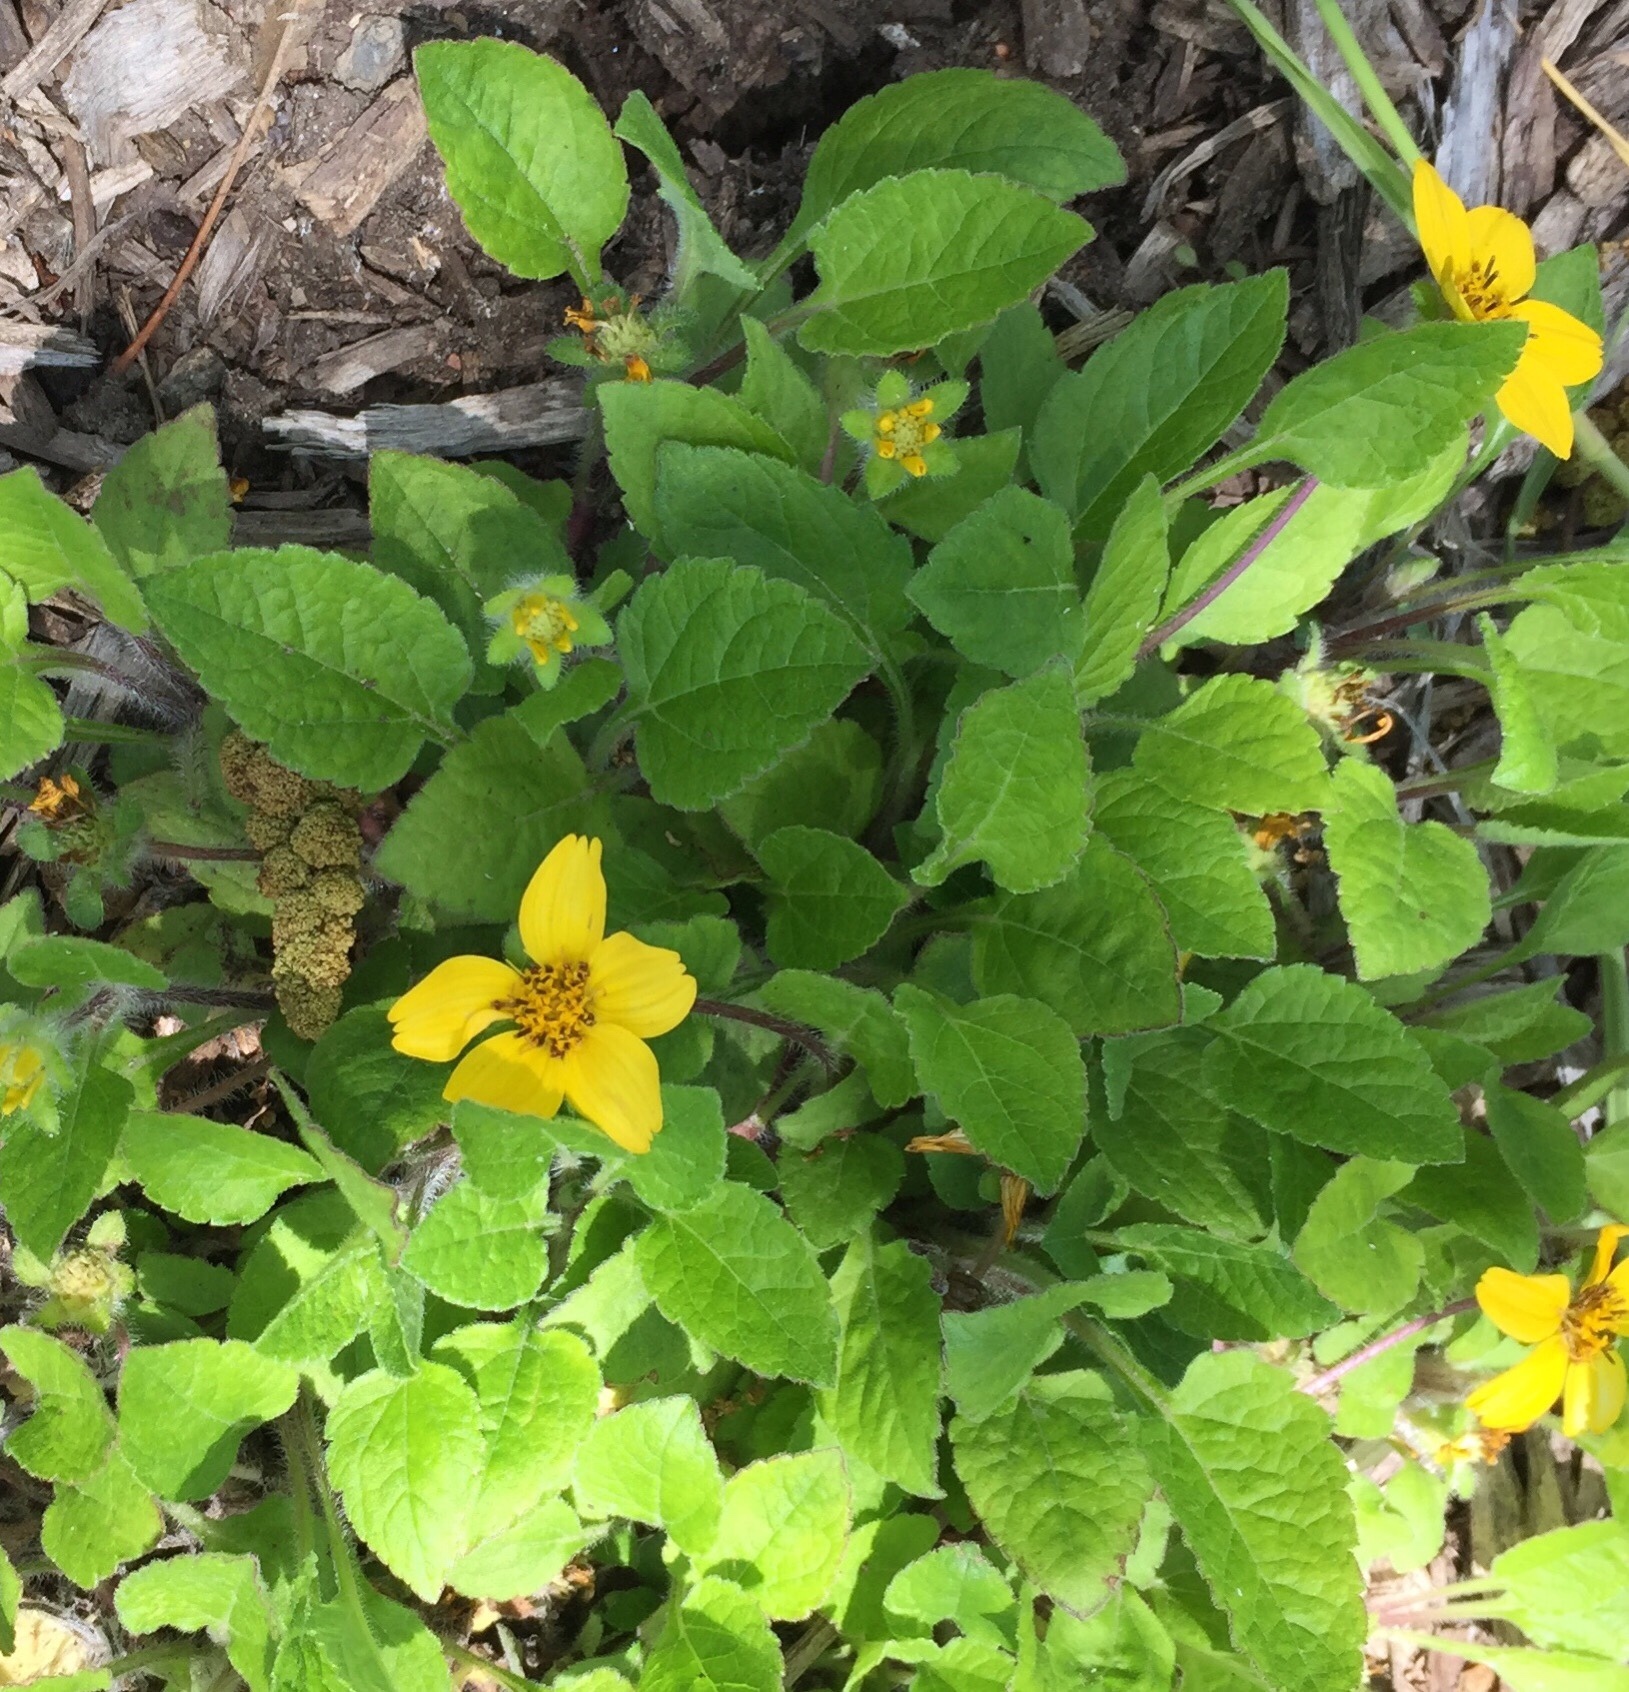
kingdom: Plantae
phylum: Tracheophyta
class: Magnoliopsida
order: Asterales
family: Asteraceae
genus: Chrysogonum
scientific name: Chrysogonum virginianum
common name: Golden-knee
